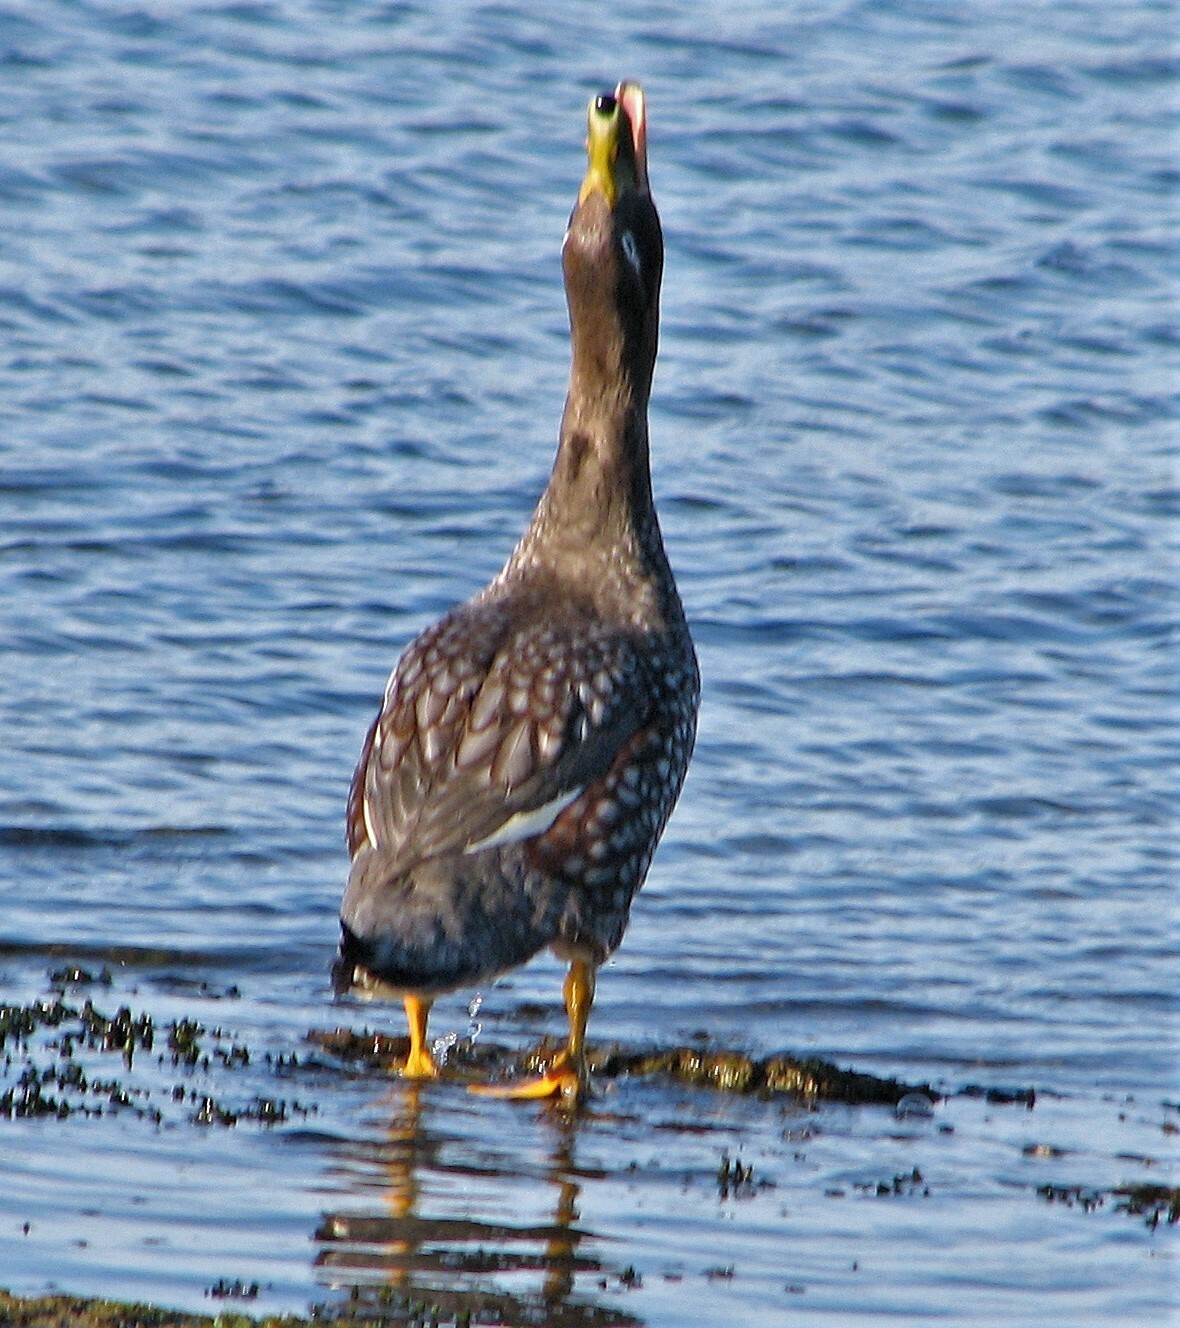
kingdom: Animalia
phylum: Chordata
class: Aves
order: Anseriformes
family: Anatidae
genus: Tachyeres
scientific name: Tachyeres brachypterus
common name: Falkland steamer duck
